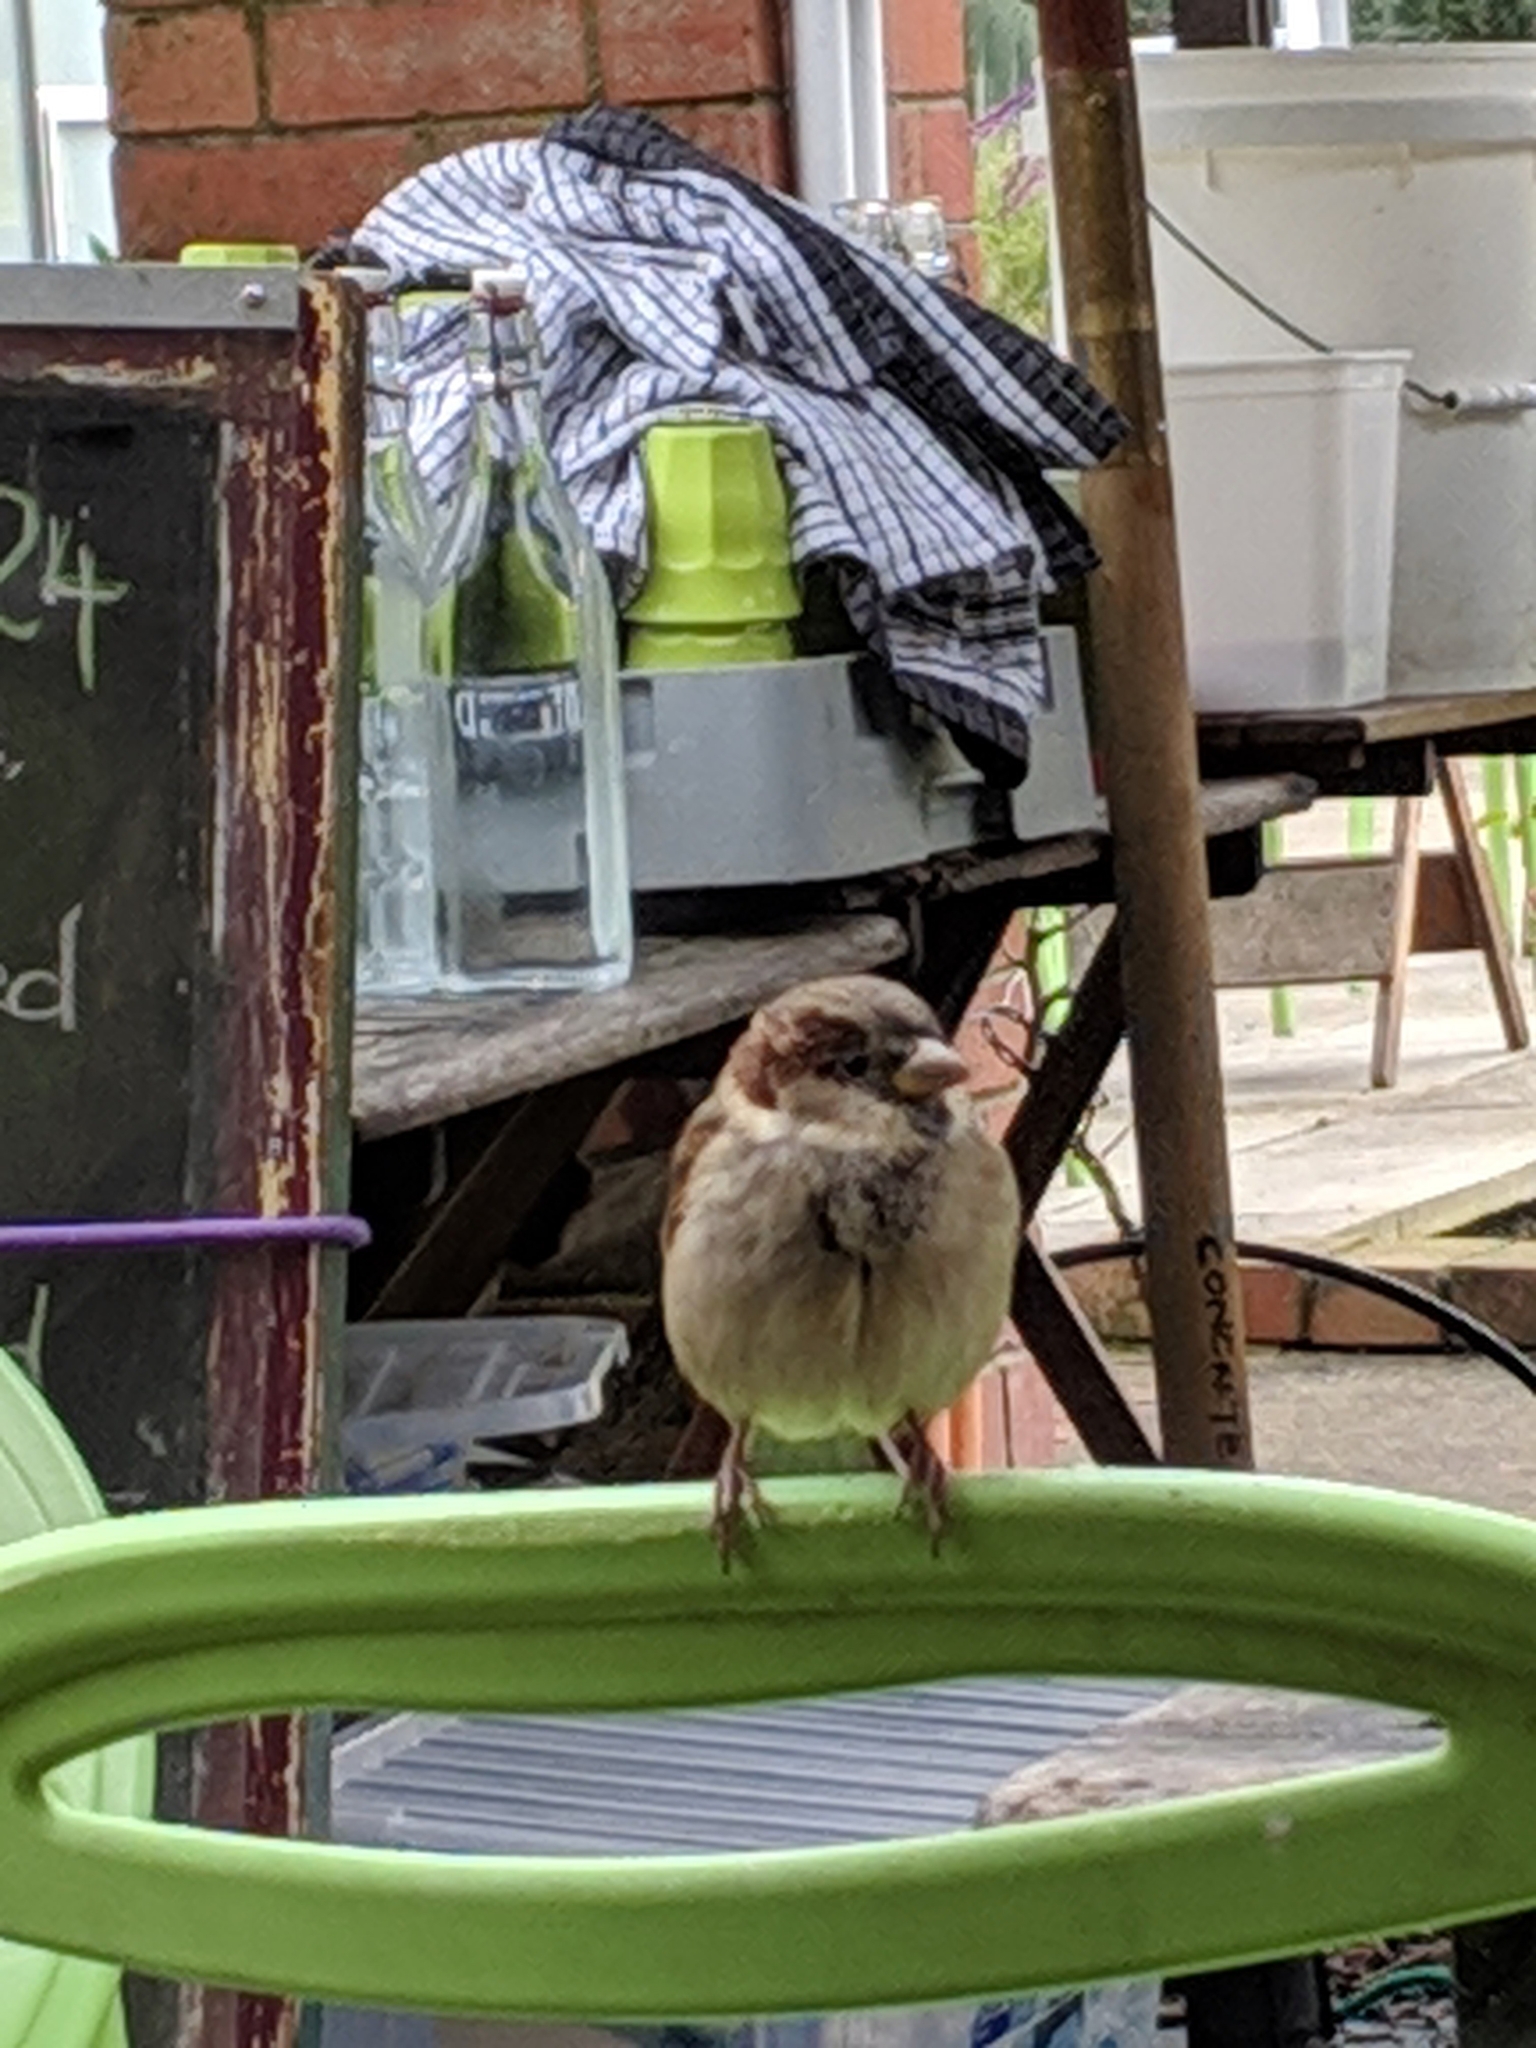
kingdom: Animalia
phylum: Chordata
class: Aves
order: Passeriformes
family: Passeridae
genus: Passer
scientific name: Passer domesticus
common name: House sparrow
